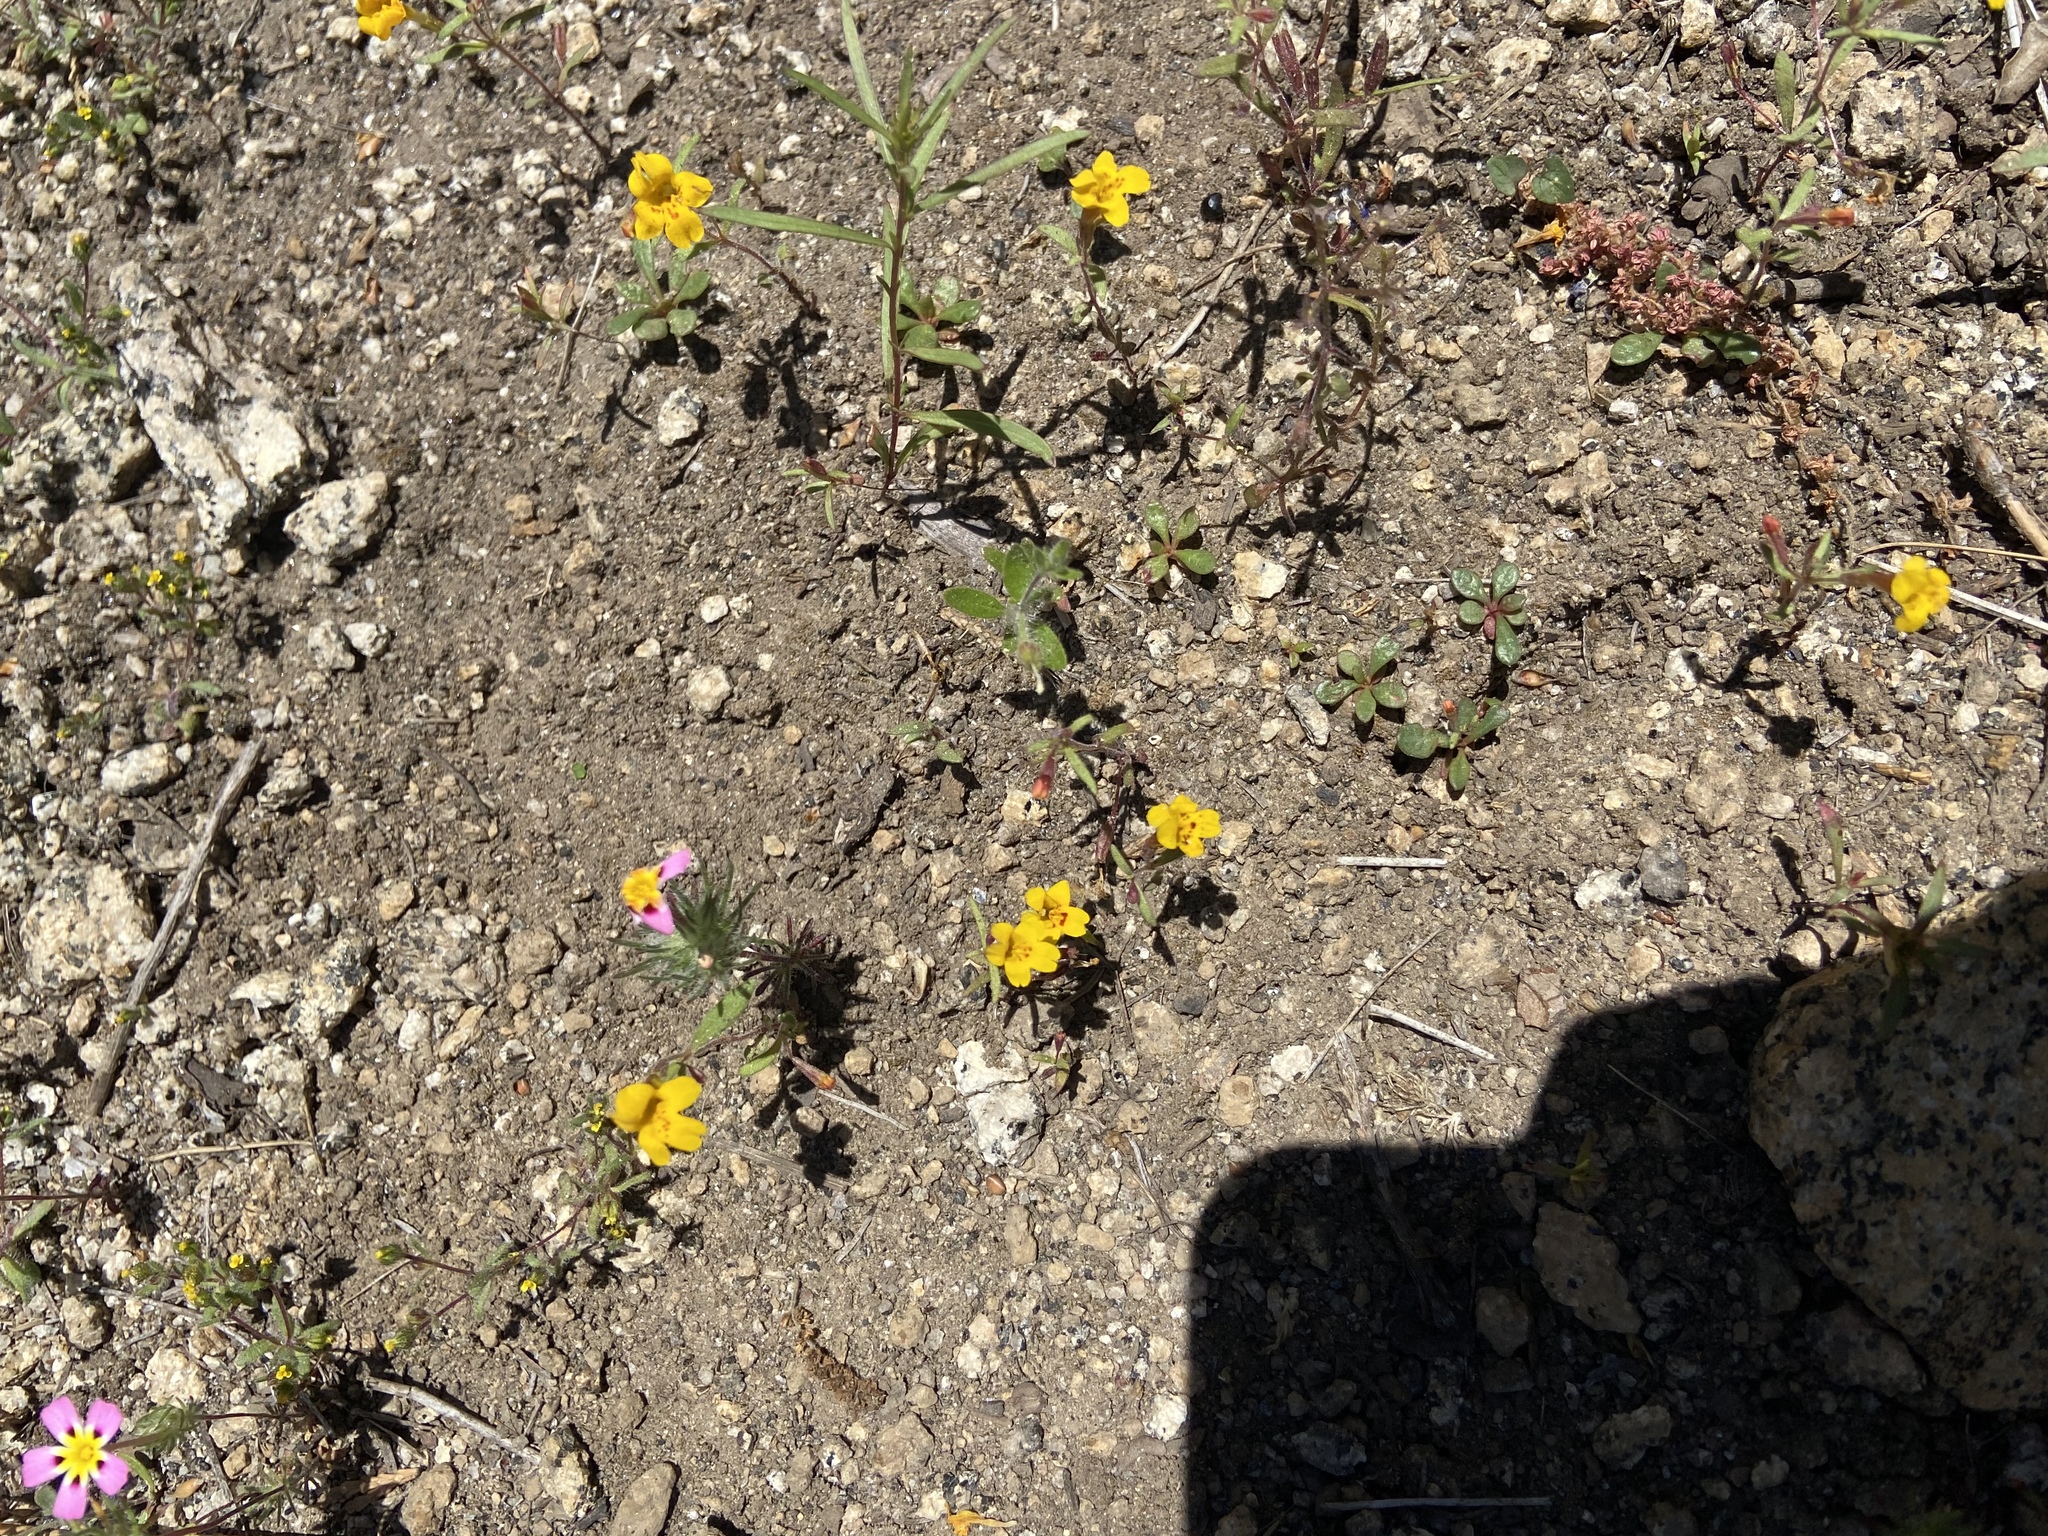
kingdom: Plantae
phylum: Tracheophyta
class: Magnoliopsida
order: Lamiales
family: Phrymaceae
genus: Erythranthe
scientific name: Erythranthe montioides
